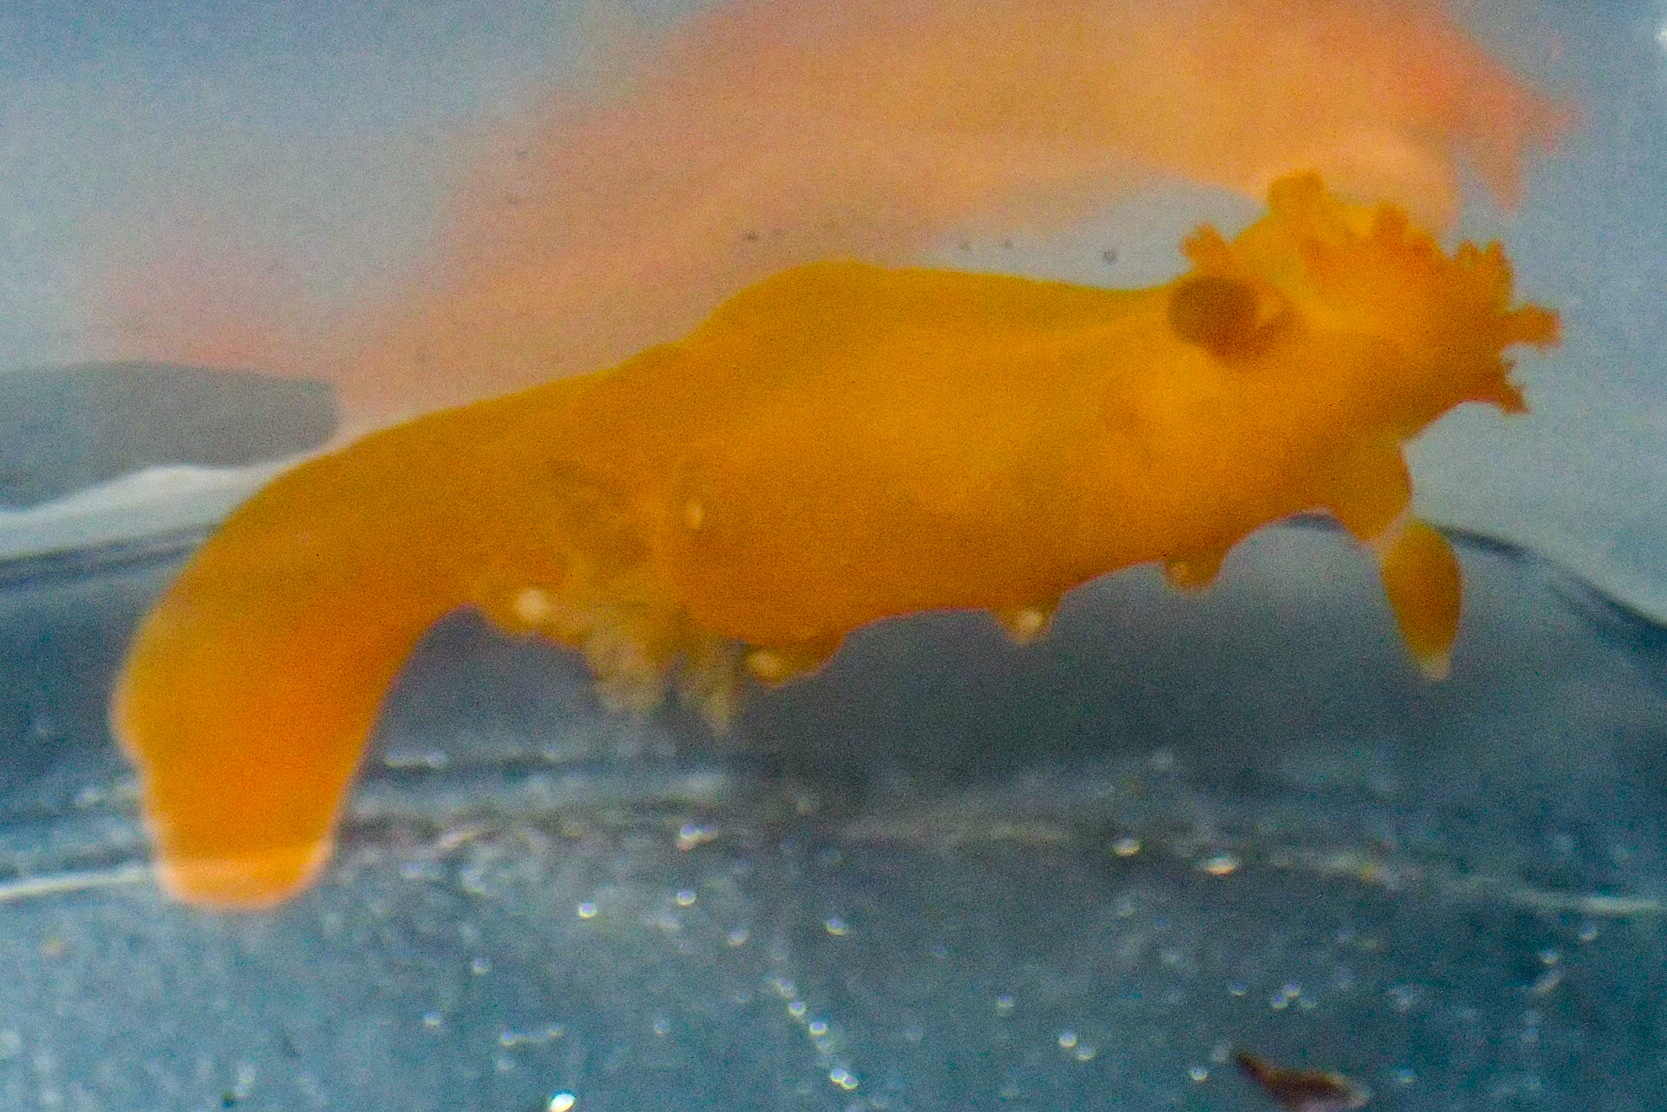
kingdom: Animalia
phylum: Mollusca
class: Gastropoda
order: Nudibranchia
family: Polyceridae
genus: Triopha
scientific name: Triopha maculata
